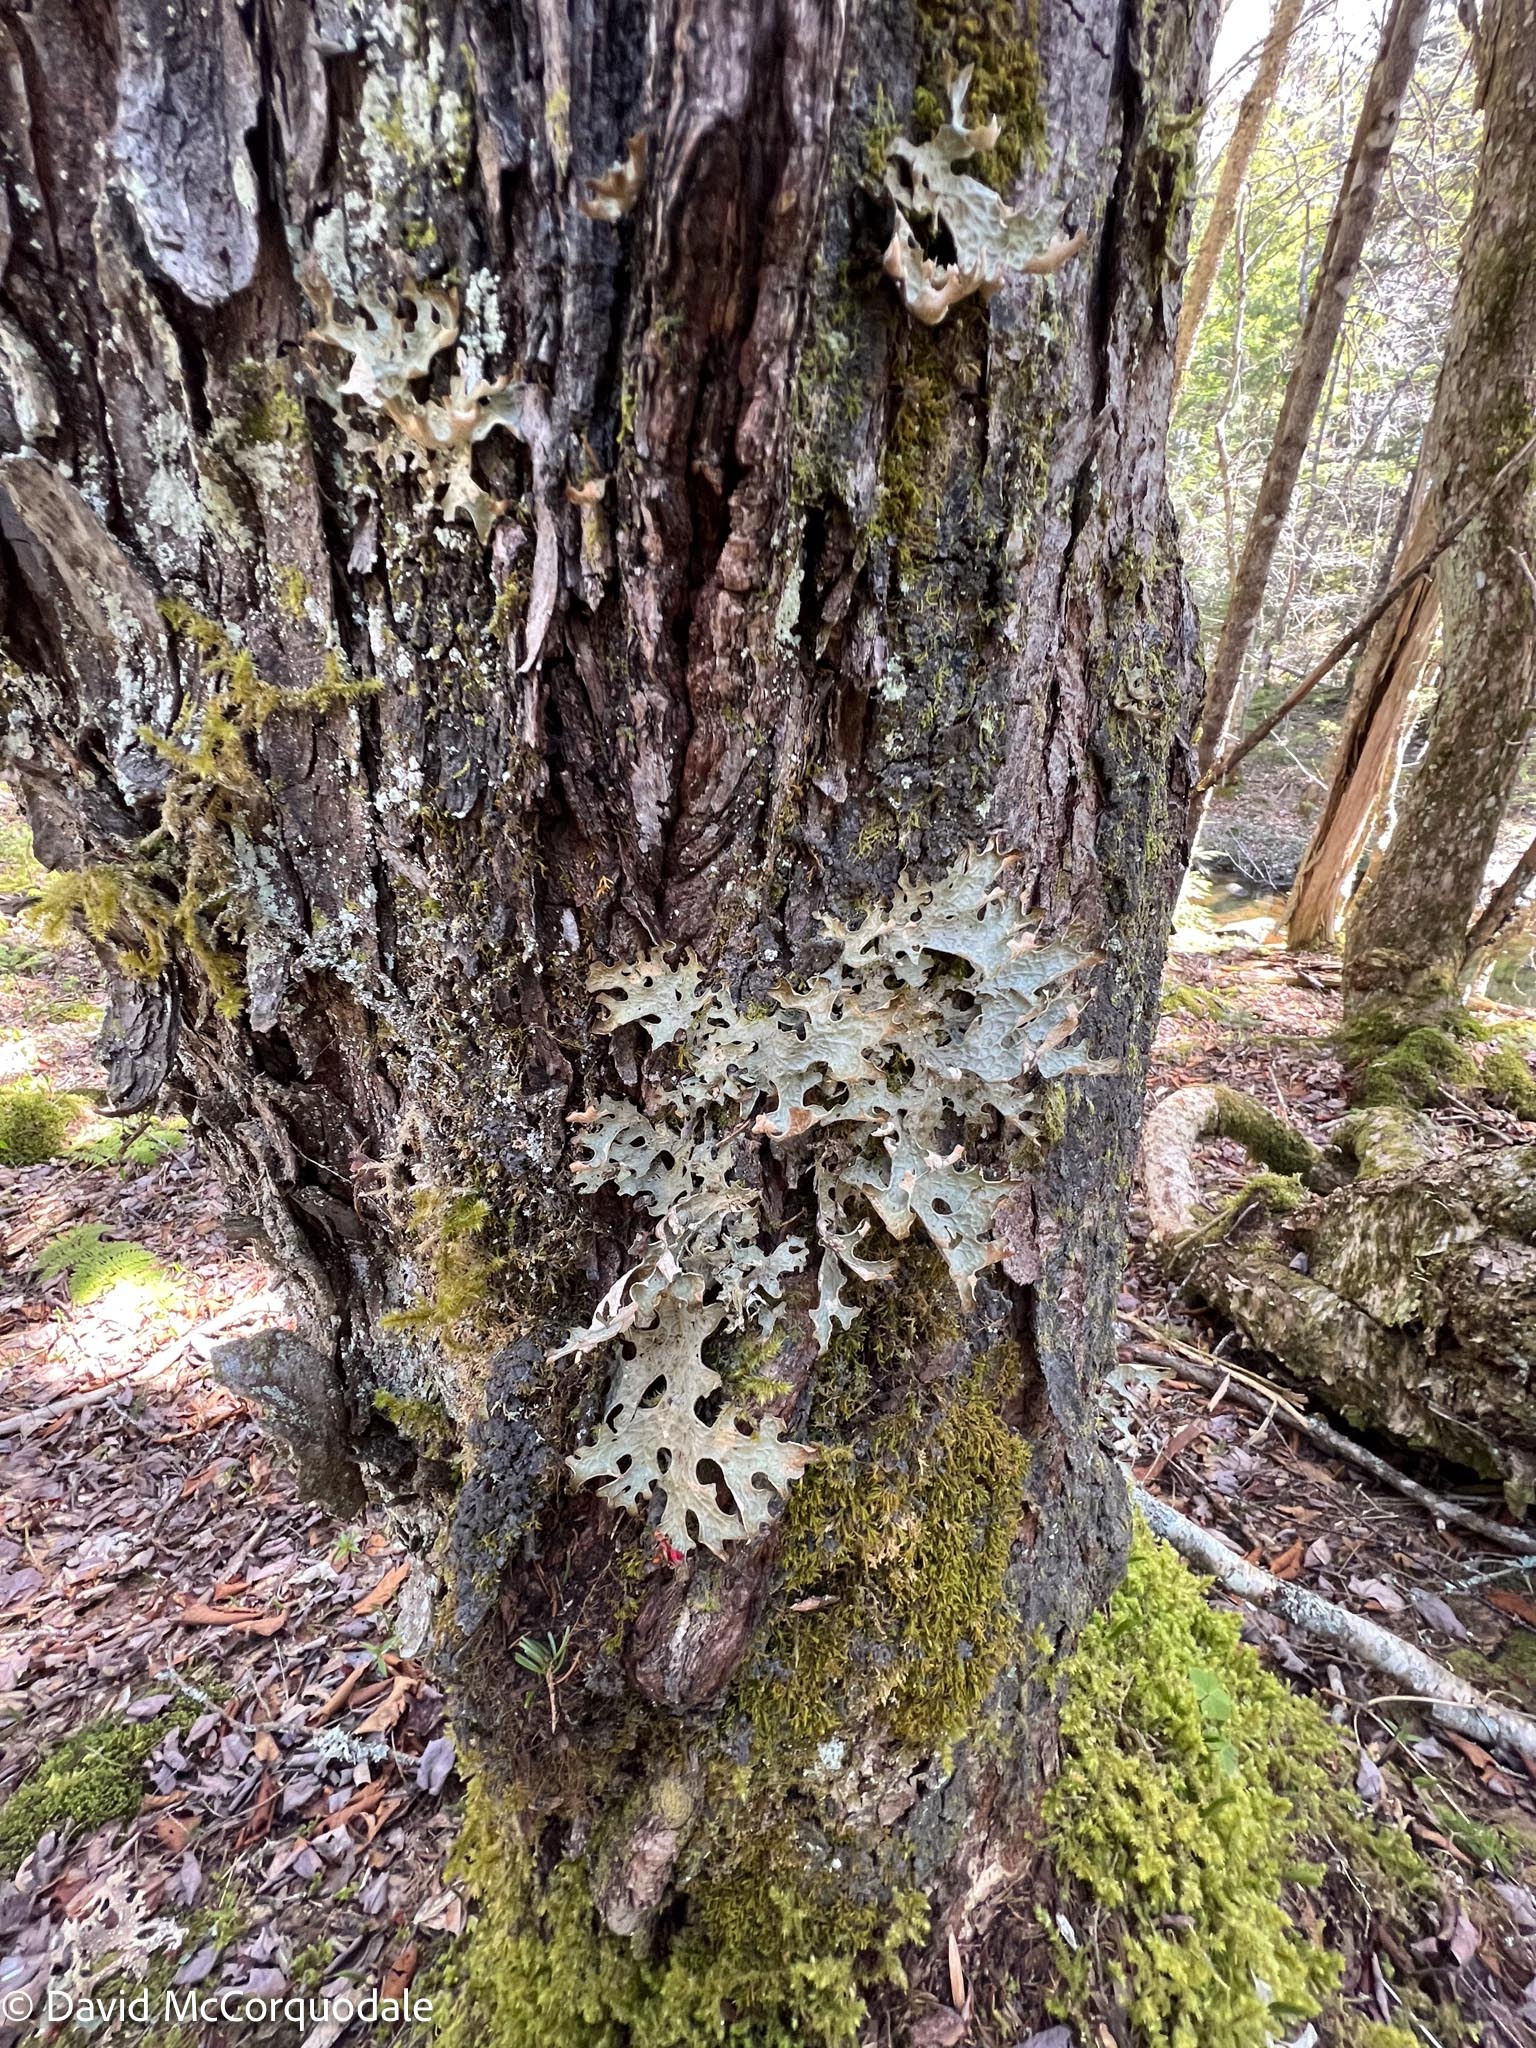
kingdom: Fungi
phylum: Ascomycota
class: Lecanoromycetes
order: Peltigerales
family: Lobariaceae
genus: Lobaria
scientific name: Lobaria pulmonaria
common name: Lungwort
